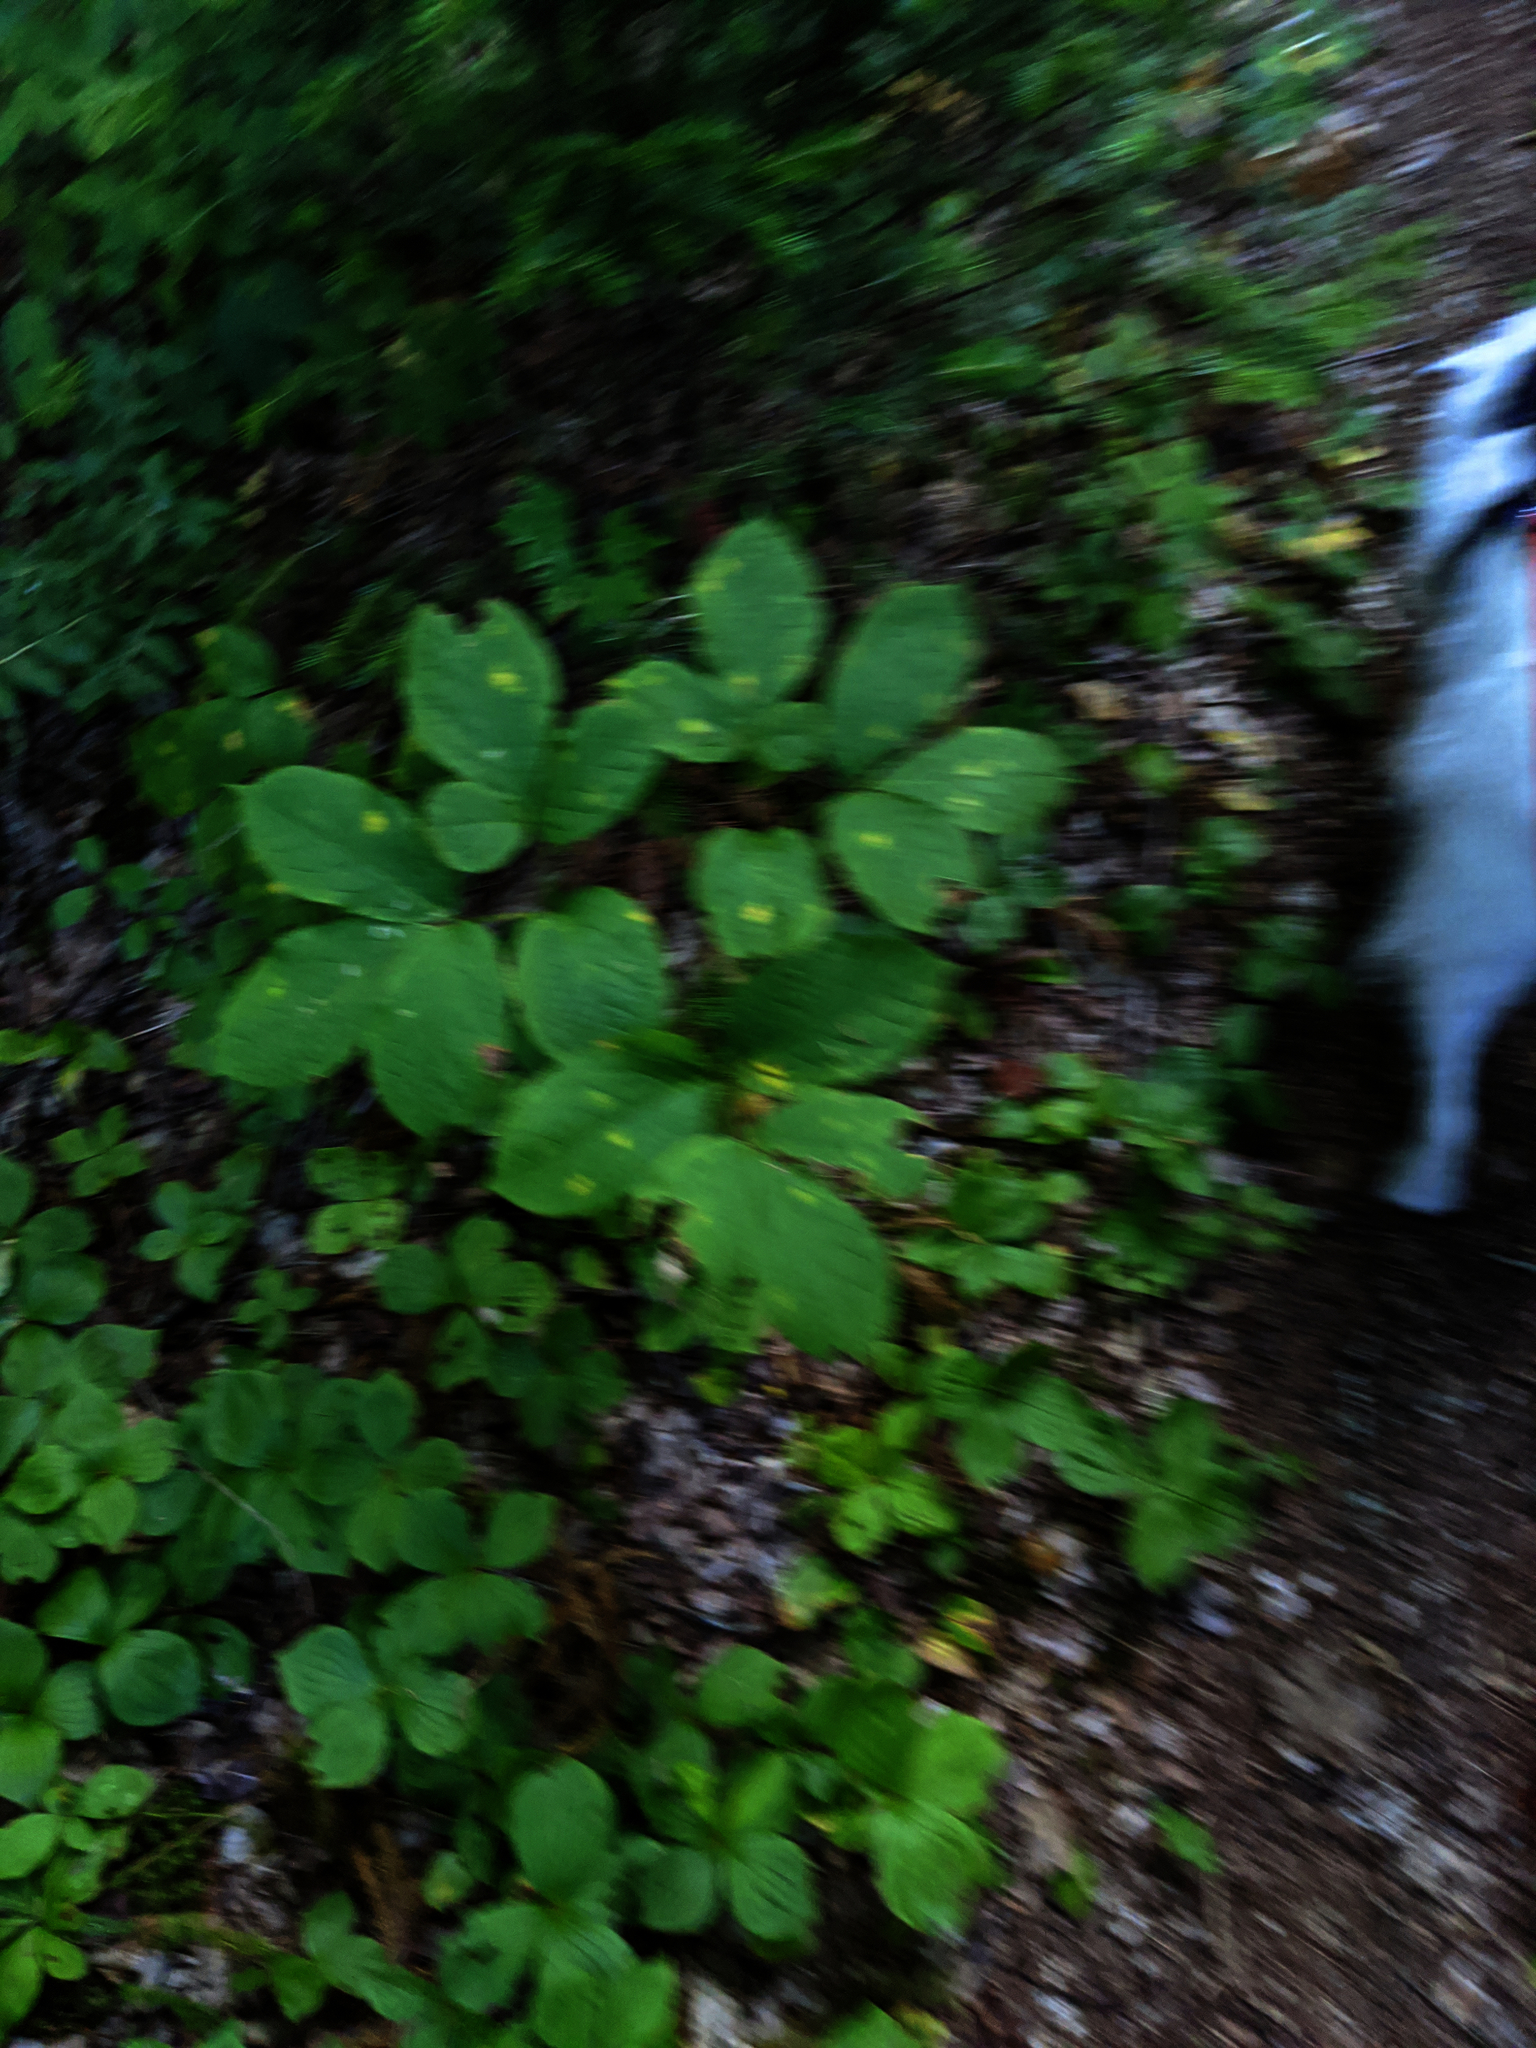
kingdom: Plantae
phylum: Tracheophyta
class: Magnoliopsida
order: Apiales
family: Araliaceae
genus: Aralia
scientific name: Aralia nudicaulis
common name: Wild sarsaparilla
